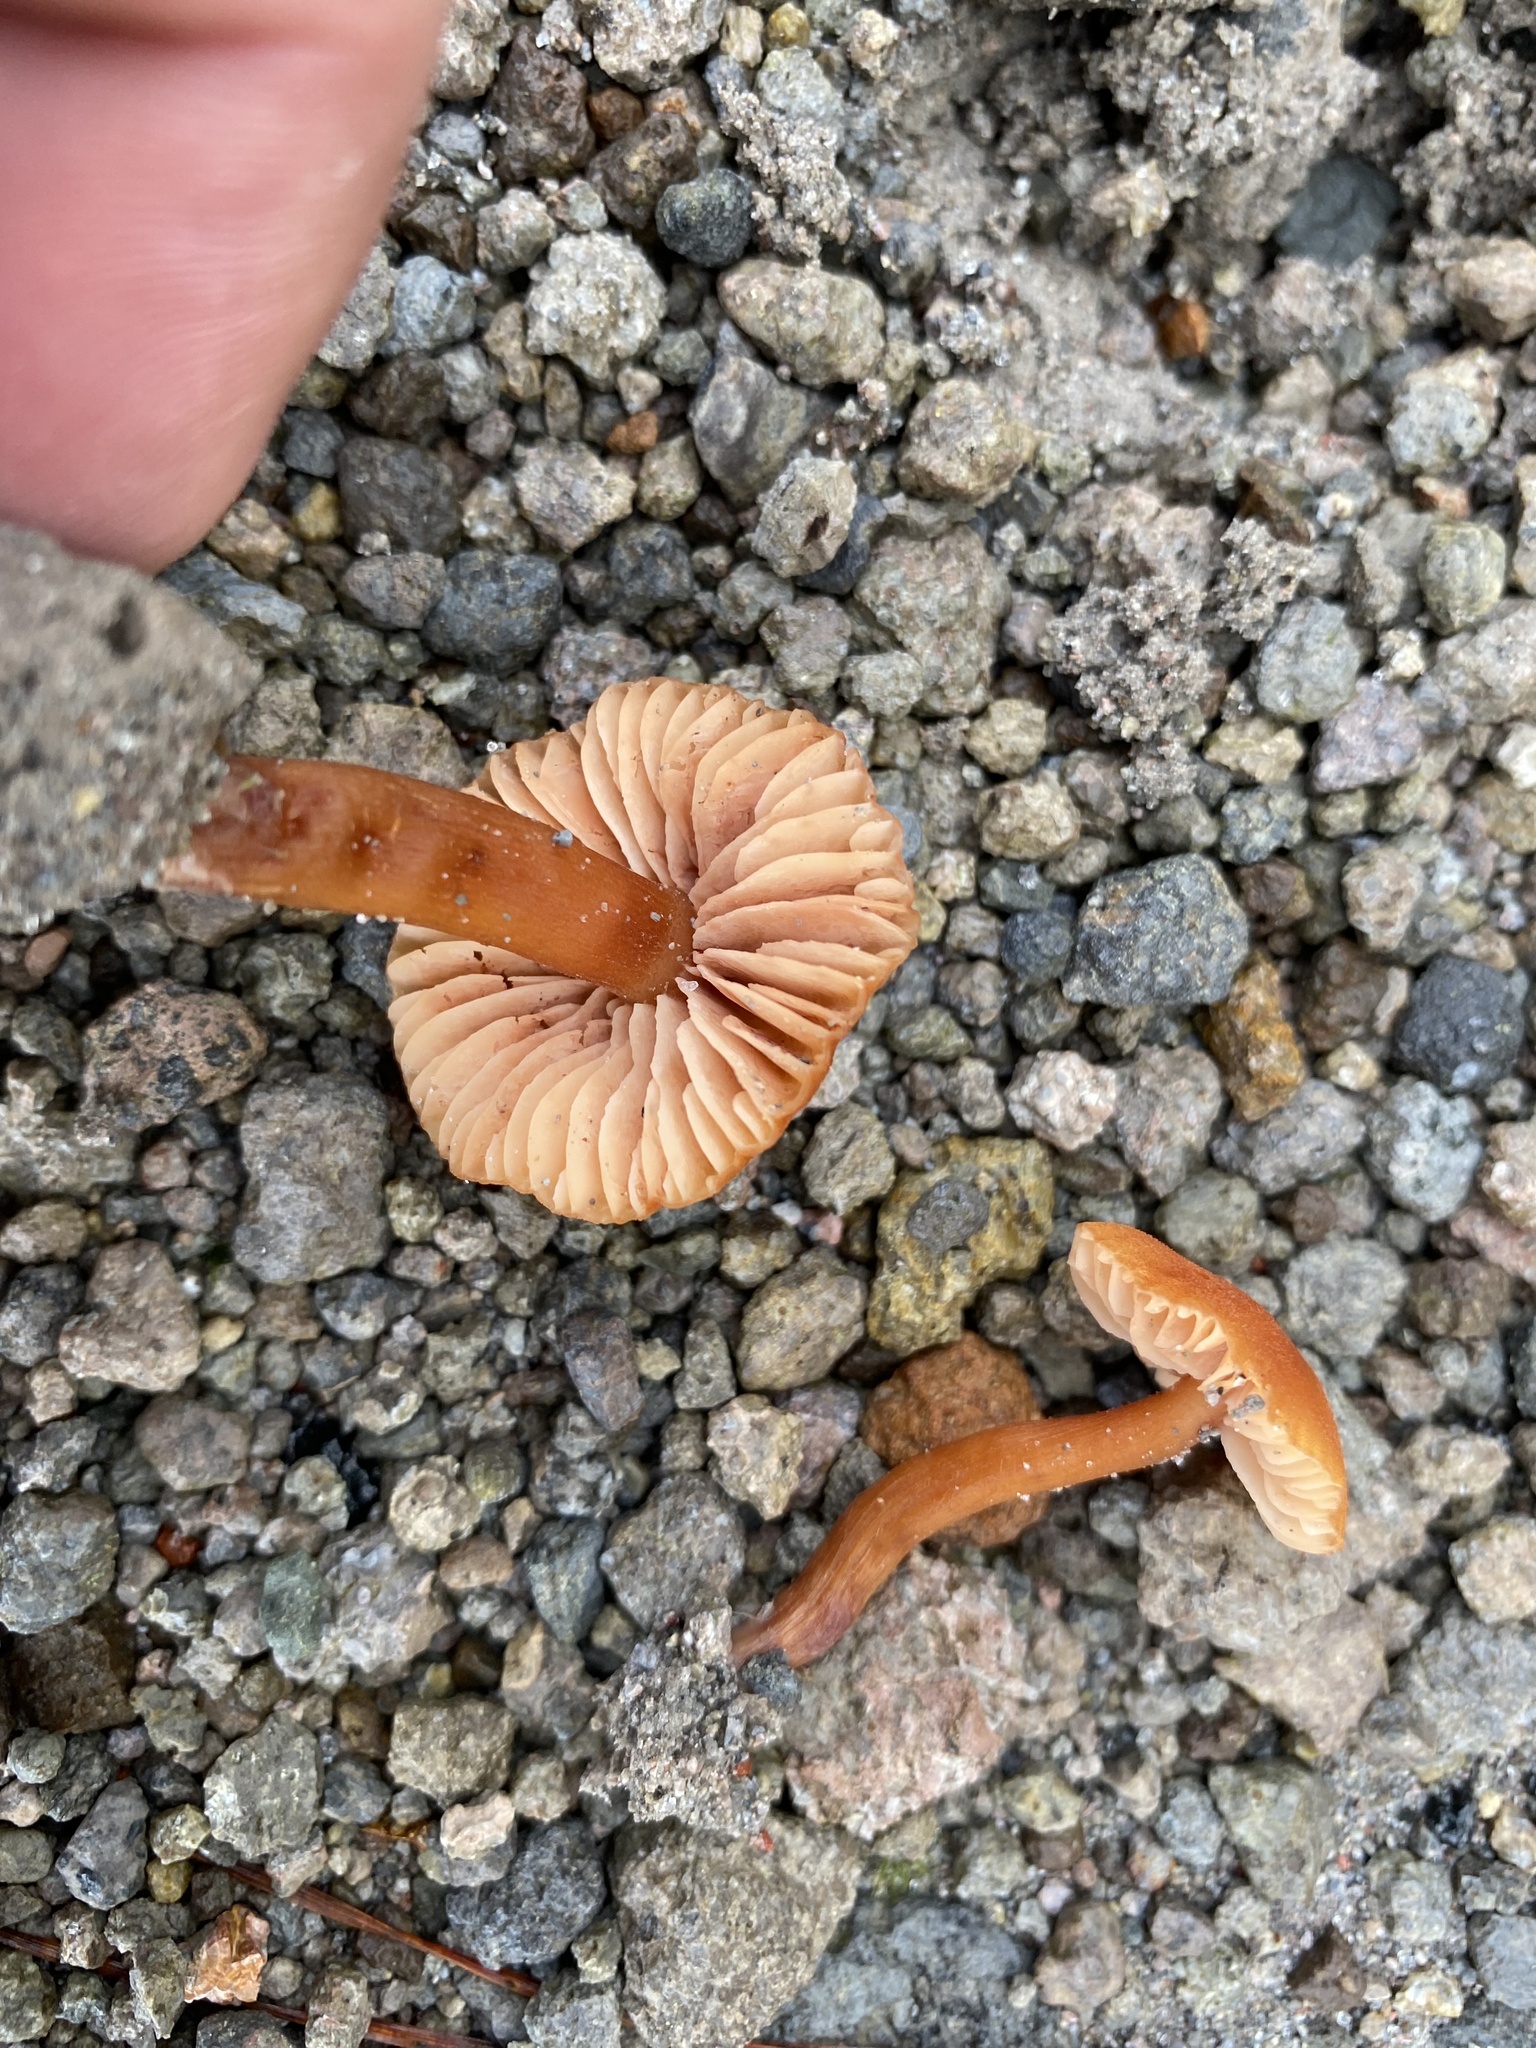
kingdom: Fungi
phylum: Basidiomycota
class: Agaricomycetes
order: Agaricales
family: Hydnangiaceae
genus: Laccaria
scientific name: Laccaria proxima
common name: Scurfy deceiver
